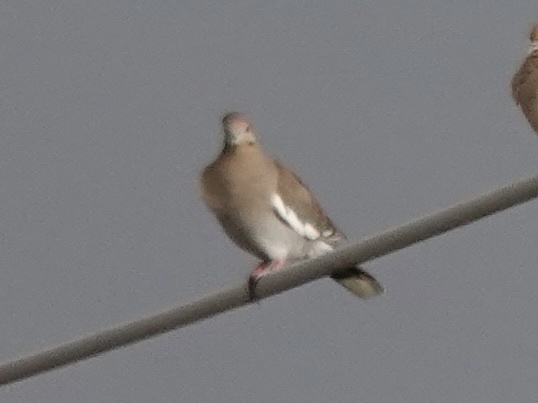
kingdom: Animalia
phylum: Chordata
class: Aves
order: Columbiformes
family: Columbidae
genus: Zenaida
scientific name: Zenaida asiatica
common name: White-winged dove
